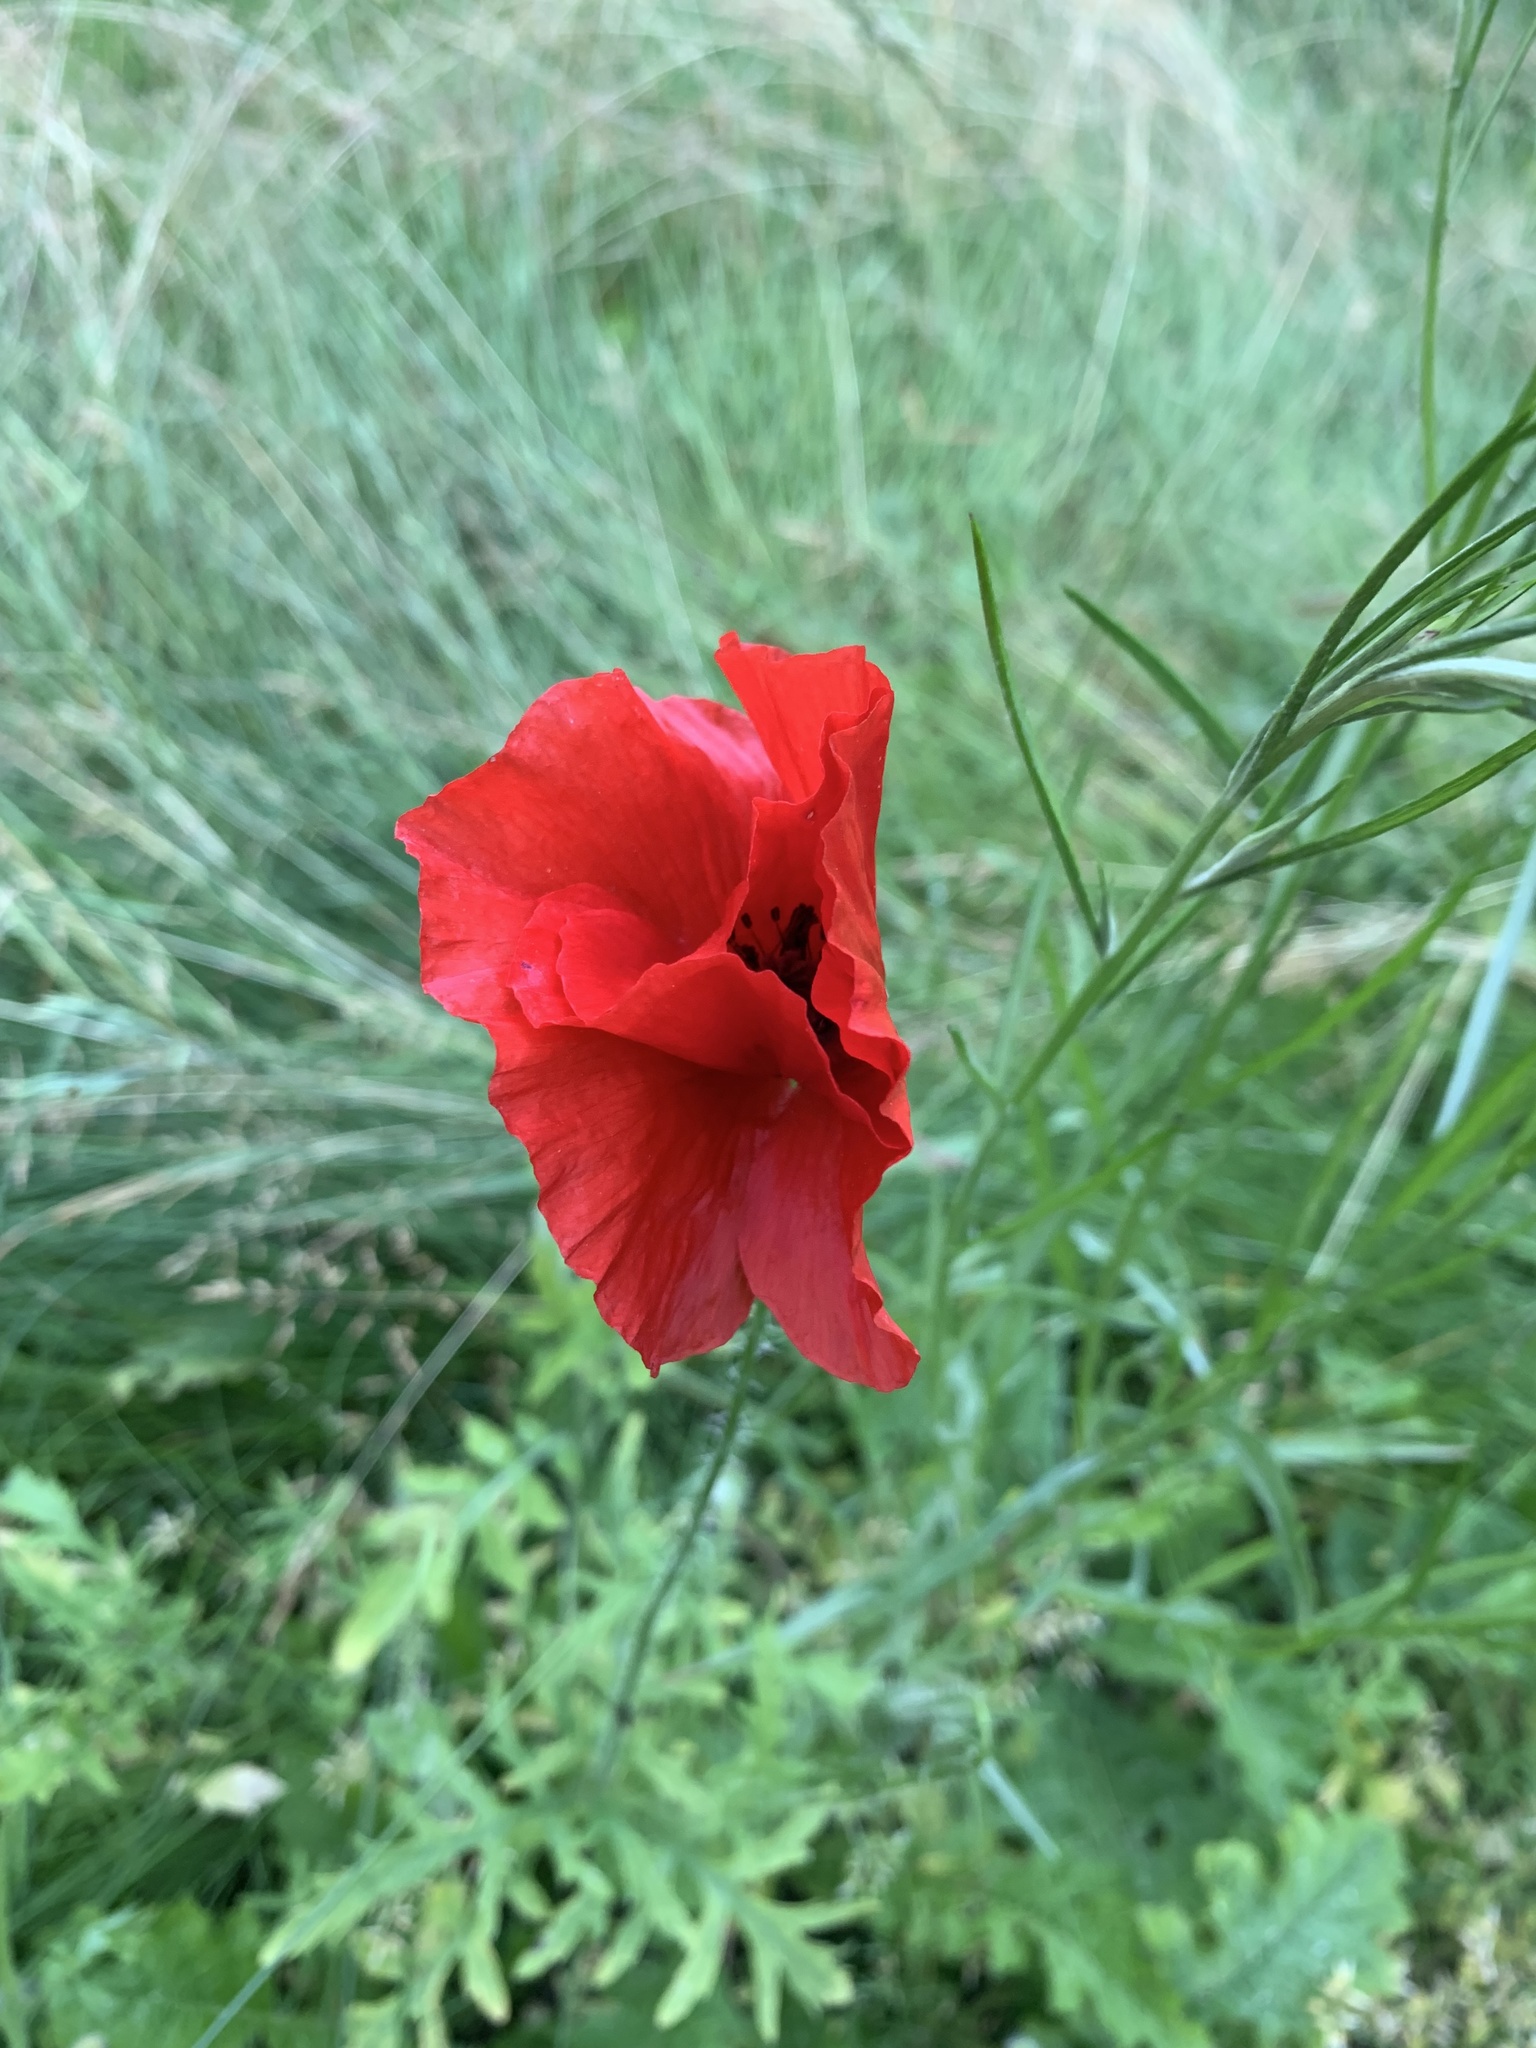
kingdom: Plantae
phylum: Tracheophyta
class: Magnoliopsida
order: Ranunculales
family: Papaveraceae
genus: Papaver
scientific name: Papaver rhoeas
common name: Corn poppy
